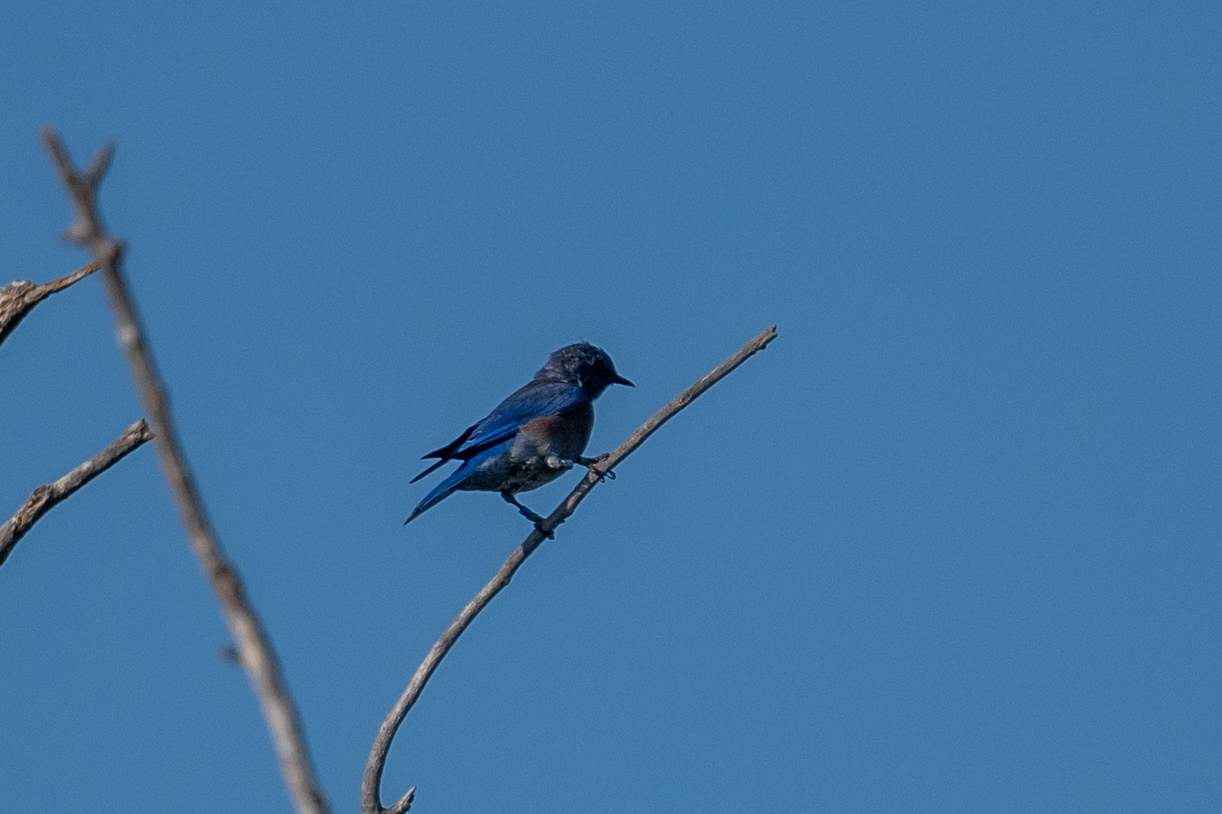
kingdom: Animalia
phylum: Chordata
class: Aves
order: Passeriformes
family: Turdidae
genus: Sialia
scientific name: Sialia mexicana
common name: Western bluebird
